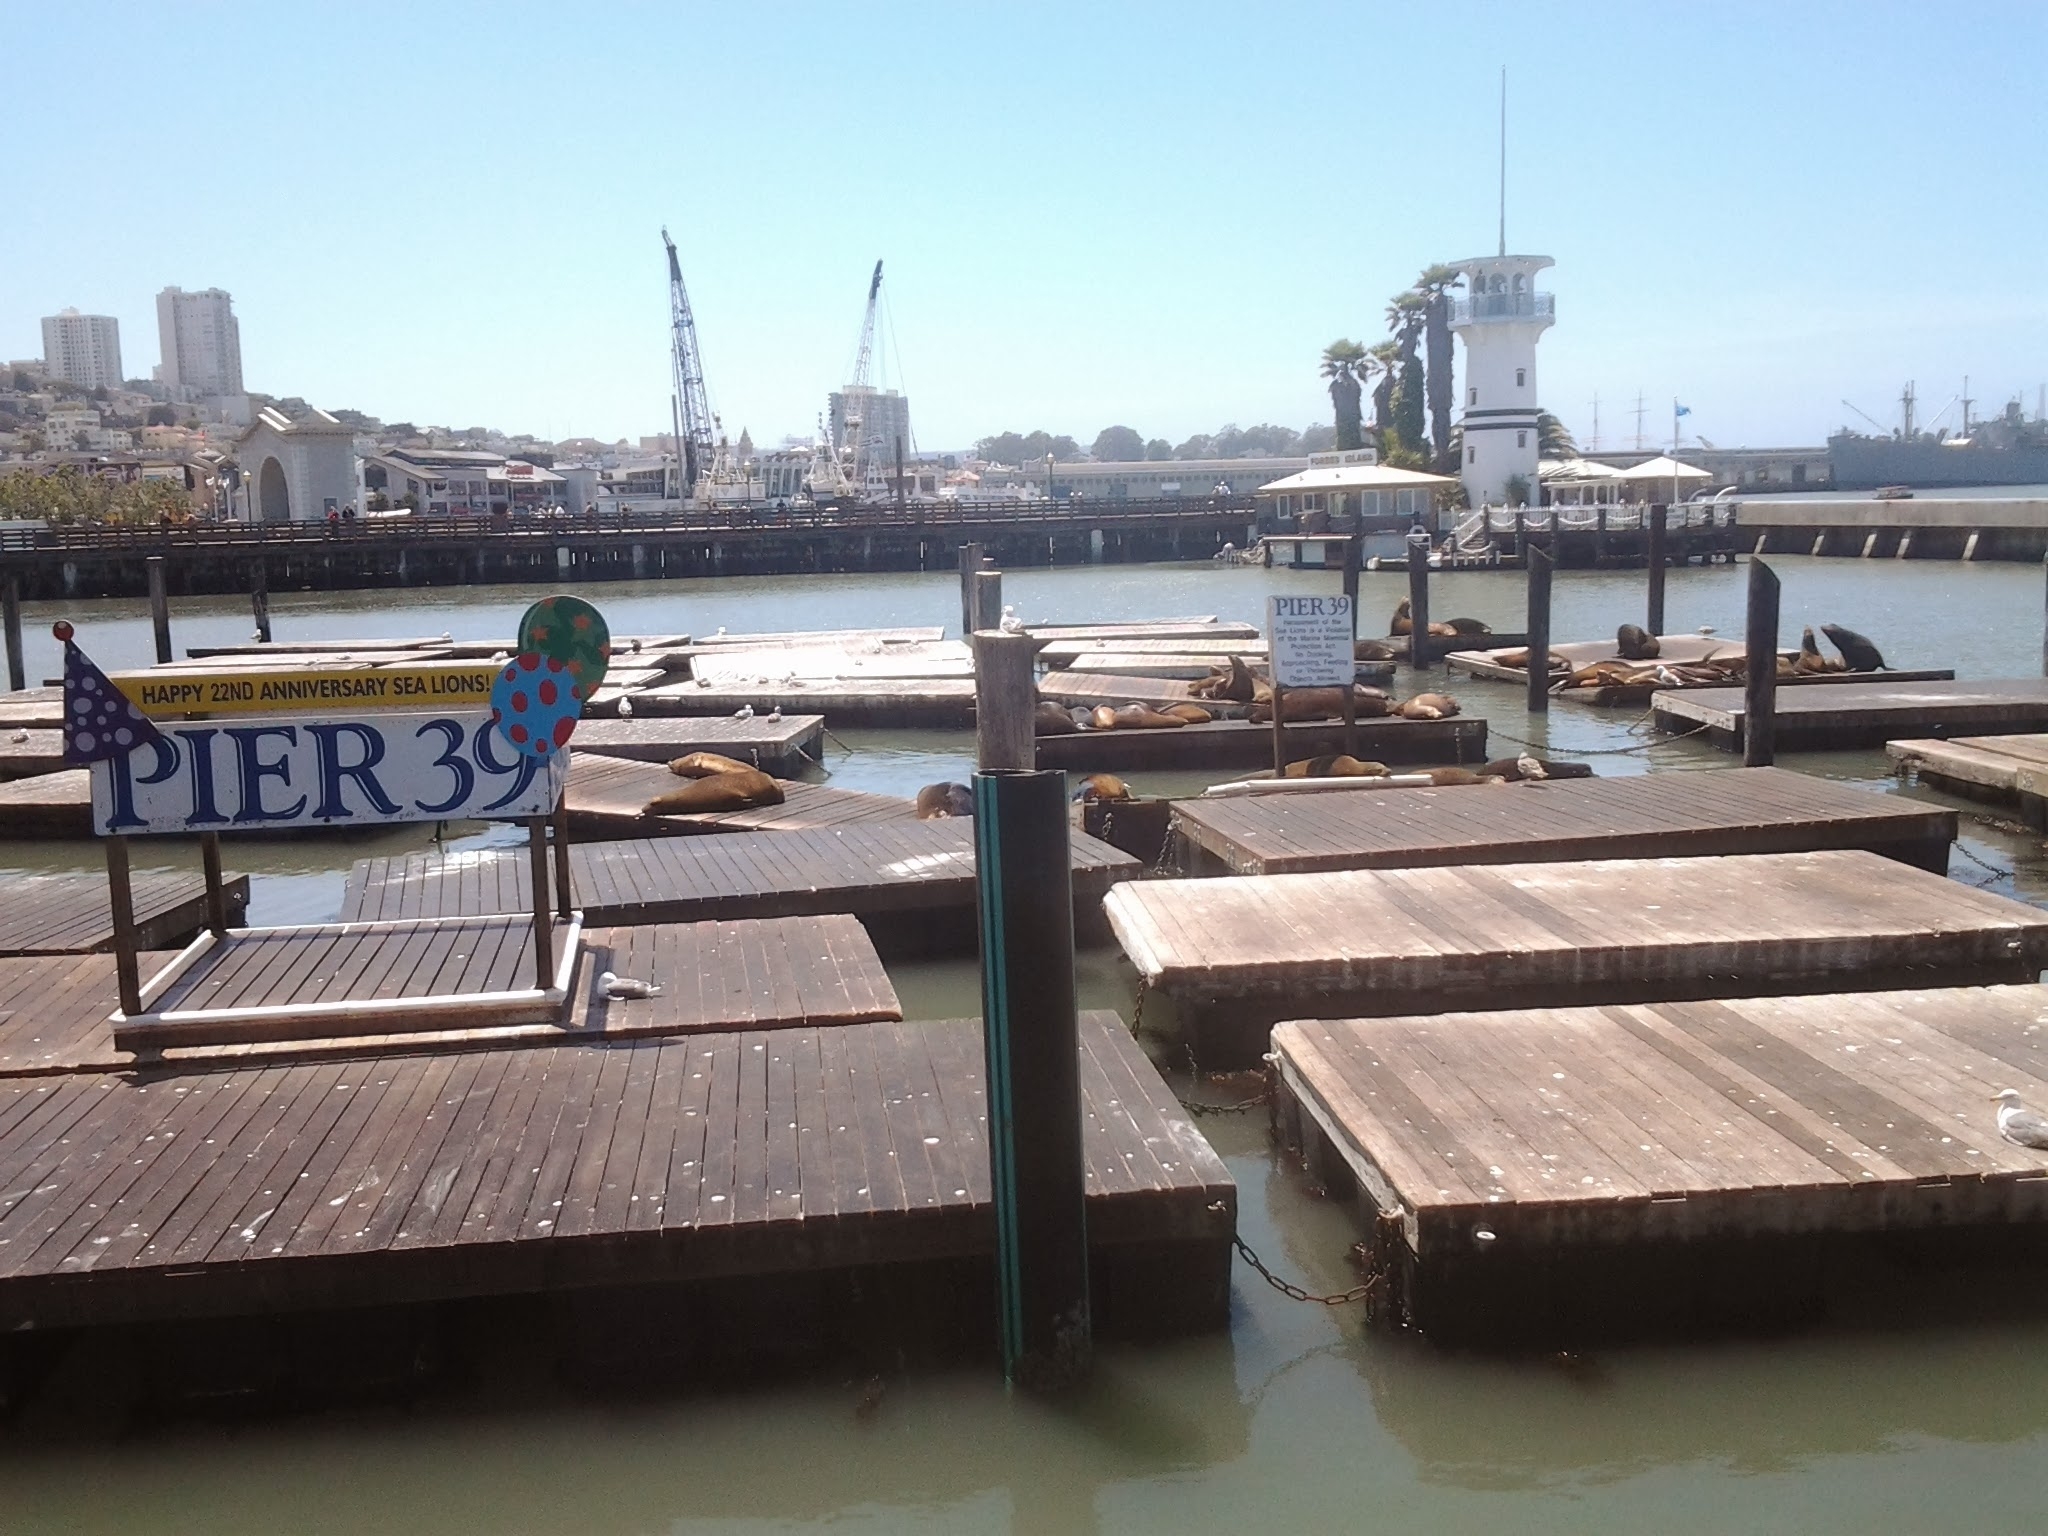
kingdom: Animalia
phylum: Chordata
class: Mammalia
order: Carnivora
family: Otariidae
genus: Zalophus
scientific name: Zalophus californianus
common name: California sea lion
